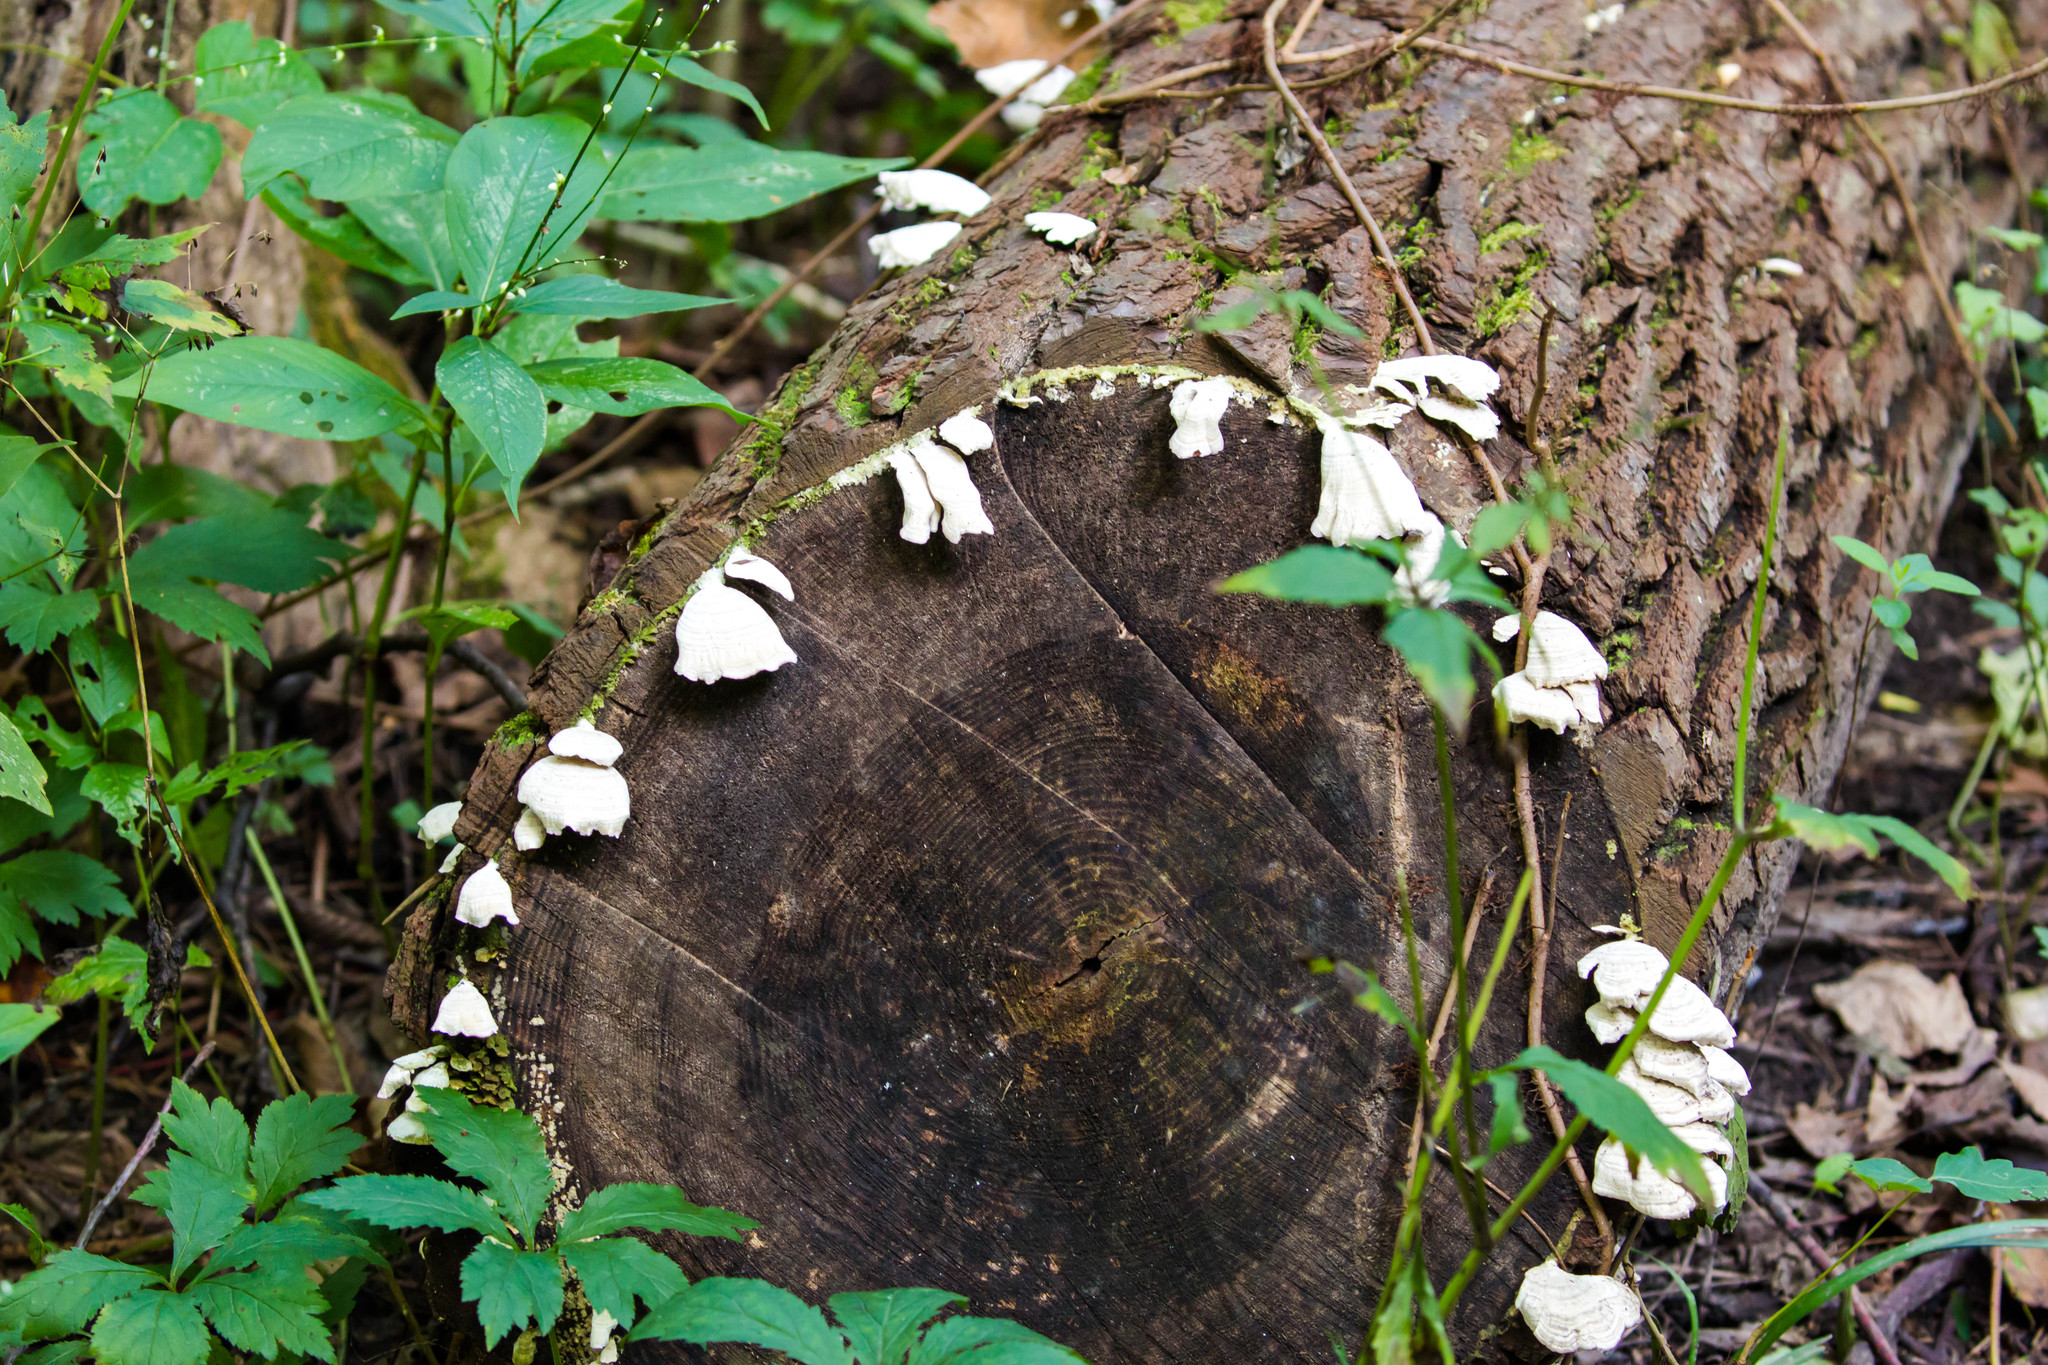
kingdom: Fungi
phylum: Basidiomycota
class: Agaricomycetes
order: Agaricales
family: Schizophyllaceae
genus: Schizophyllum
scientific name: Schizophyllum commune
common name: Common porecrust
